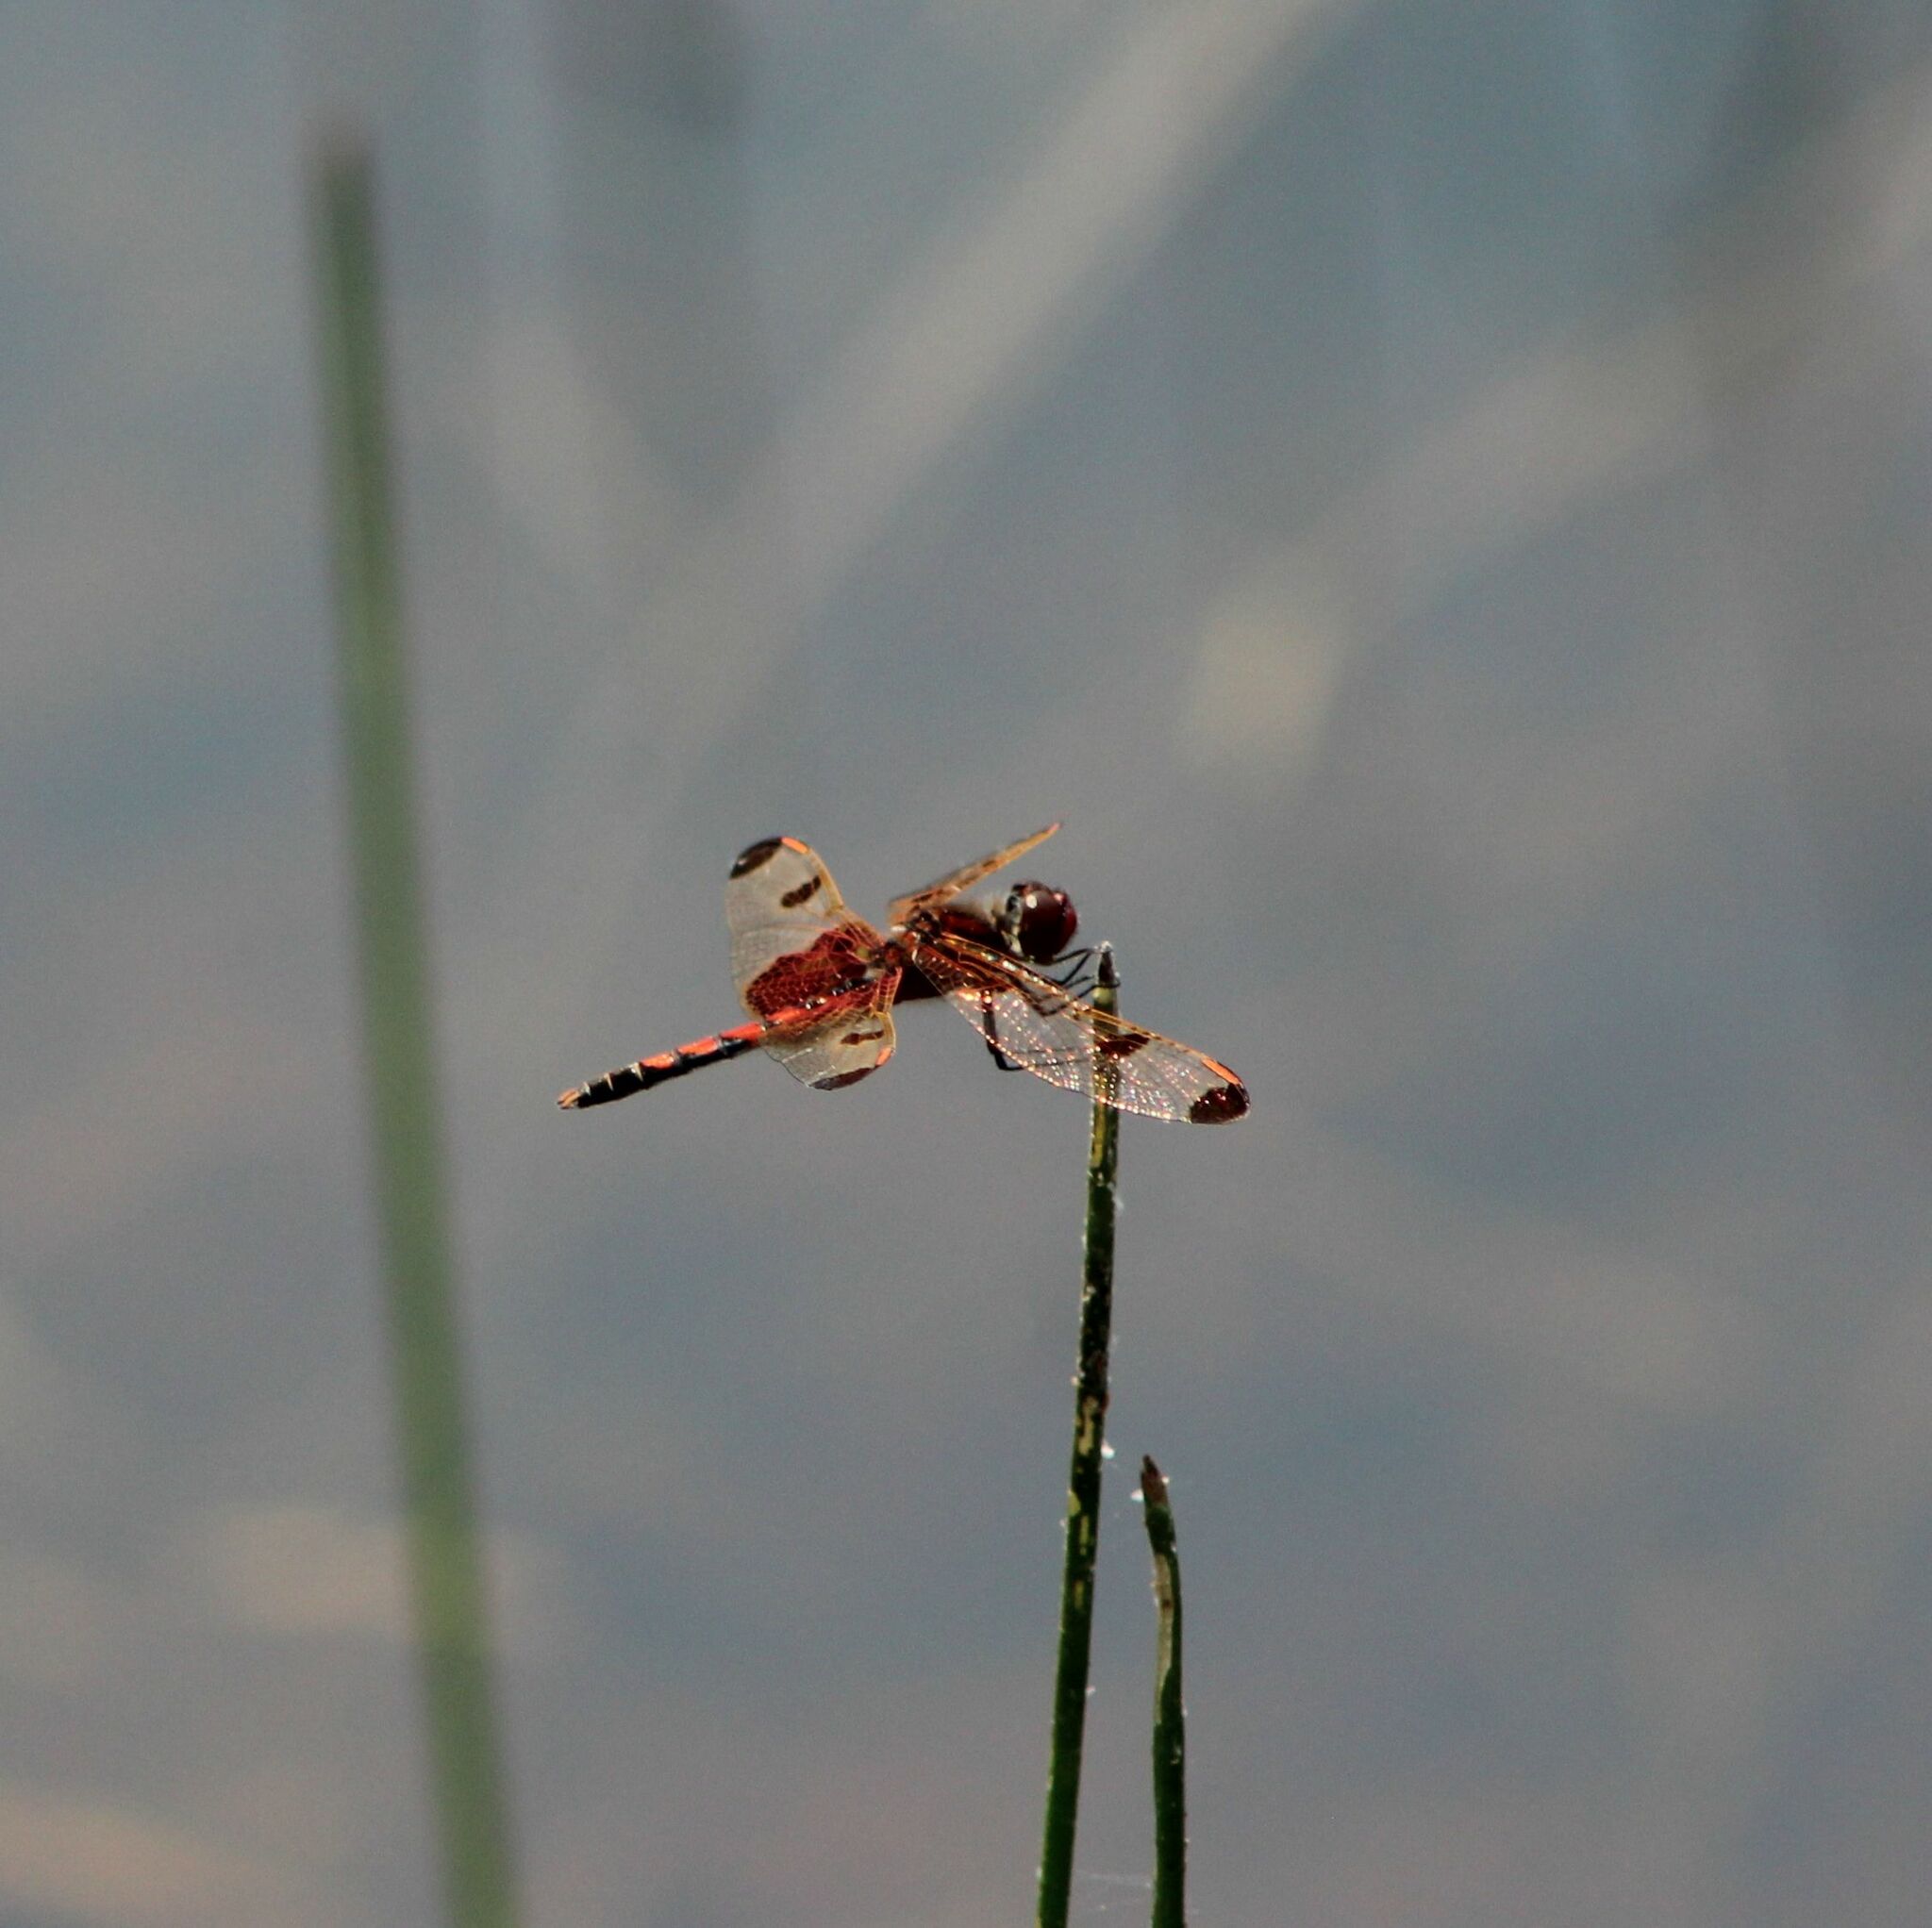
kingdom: Animalia
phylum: Arthropoda
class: Insecta
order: Odonata
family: Libellulidae
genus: Celithemis
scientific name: Celithemis elisa
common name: Calico pennant
